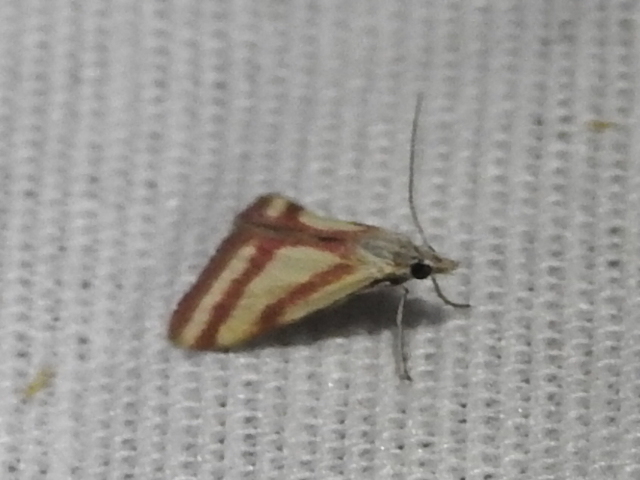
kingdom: Animalia
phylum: Arthropoda
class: Insecta
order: Lepidoptera
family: Crambidae
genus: Microtheoris
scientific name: Microtheoris vibicalis
